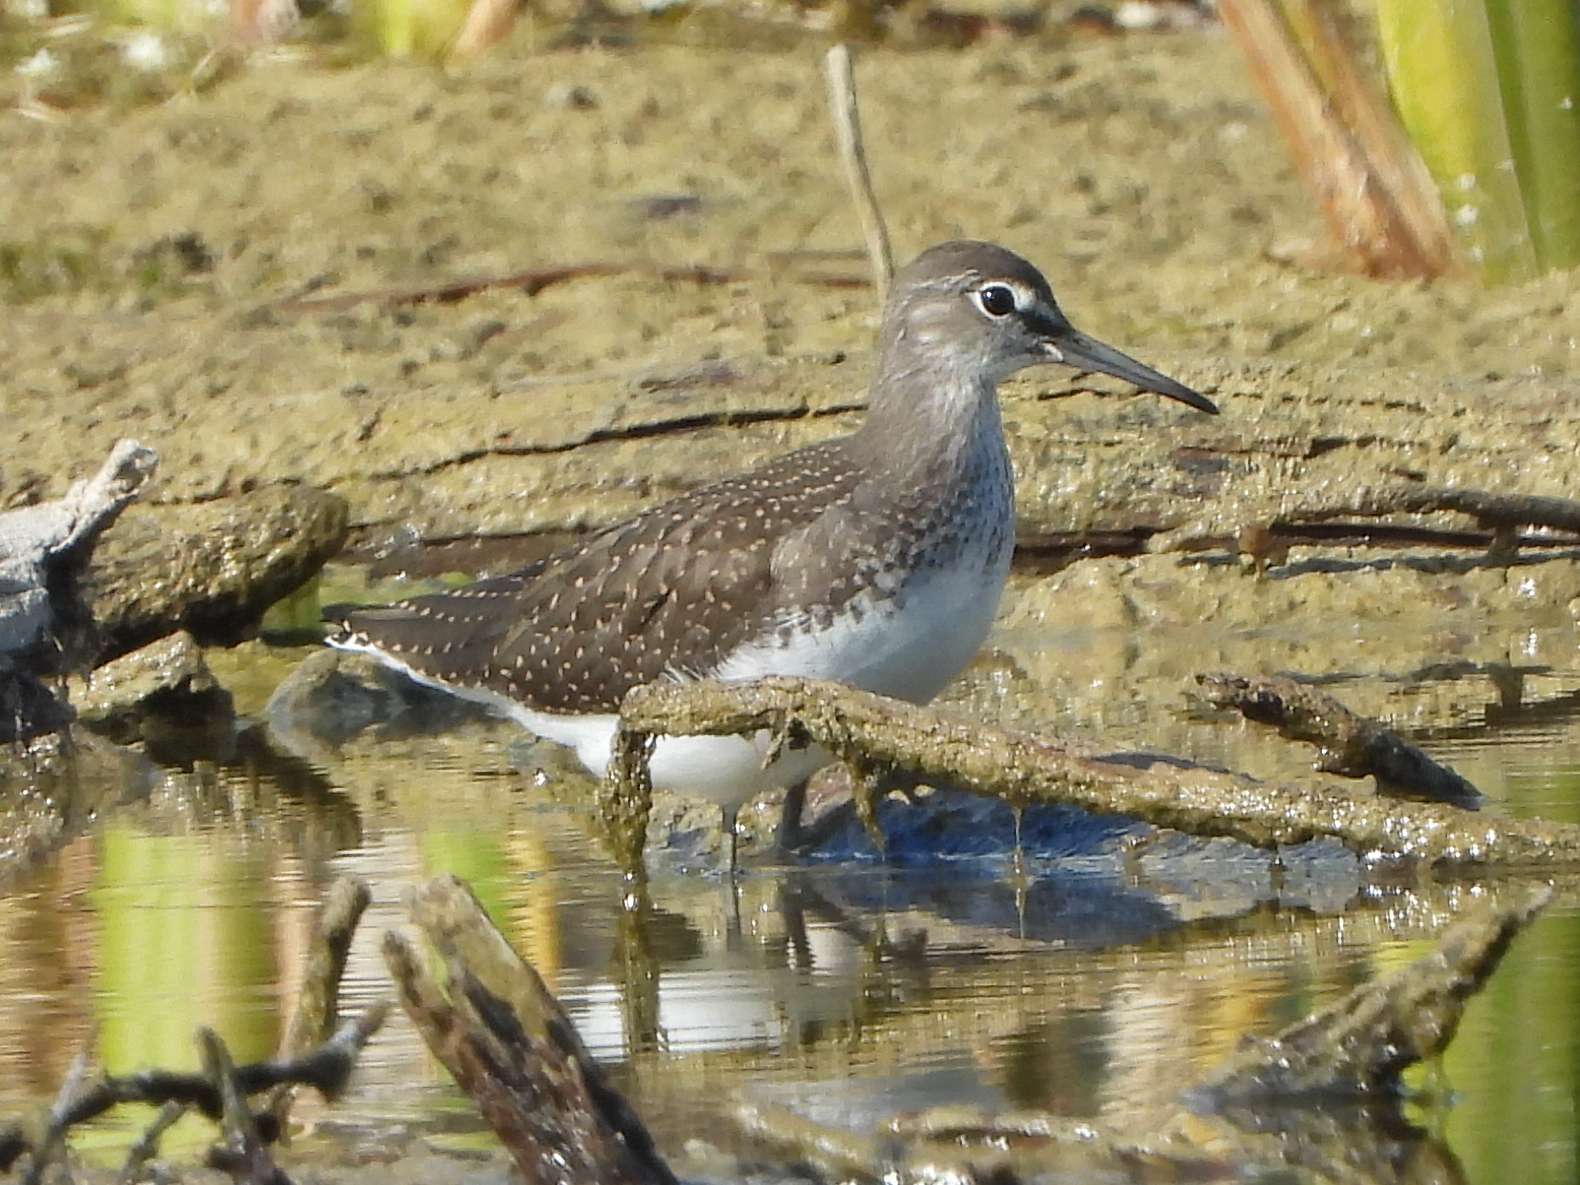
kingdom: Animalia
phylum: Chordata
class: Aves
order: Charadriiformes
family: Scolopacidae
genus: Tringa
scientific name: Tringa ochropus
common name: Green sandpiper
